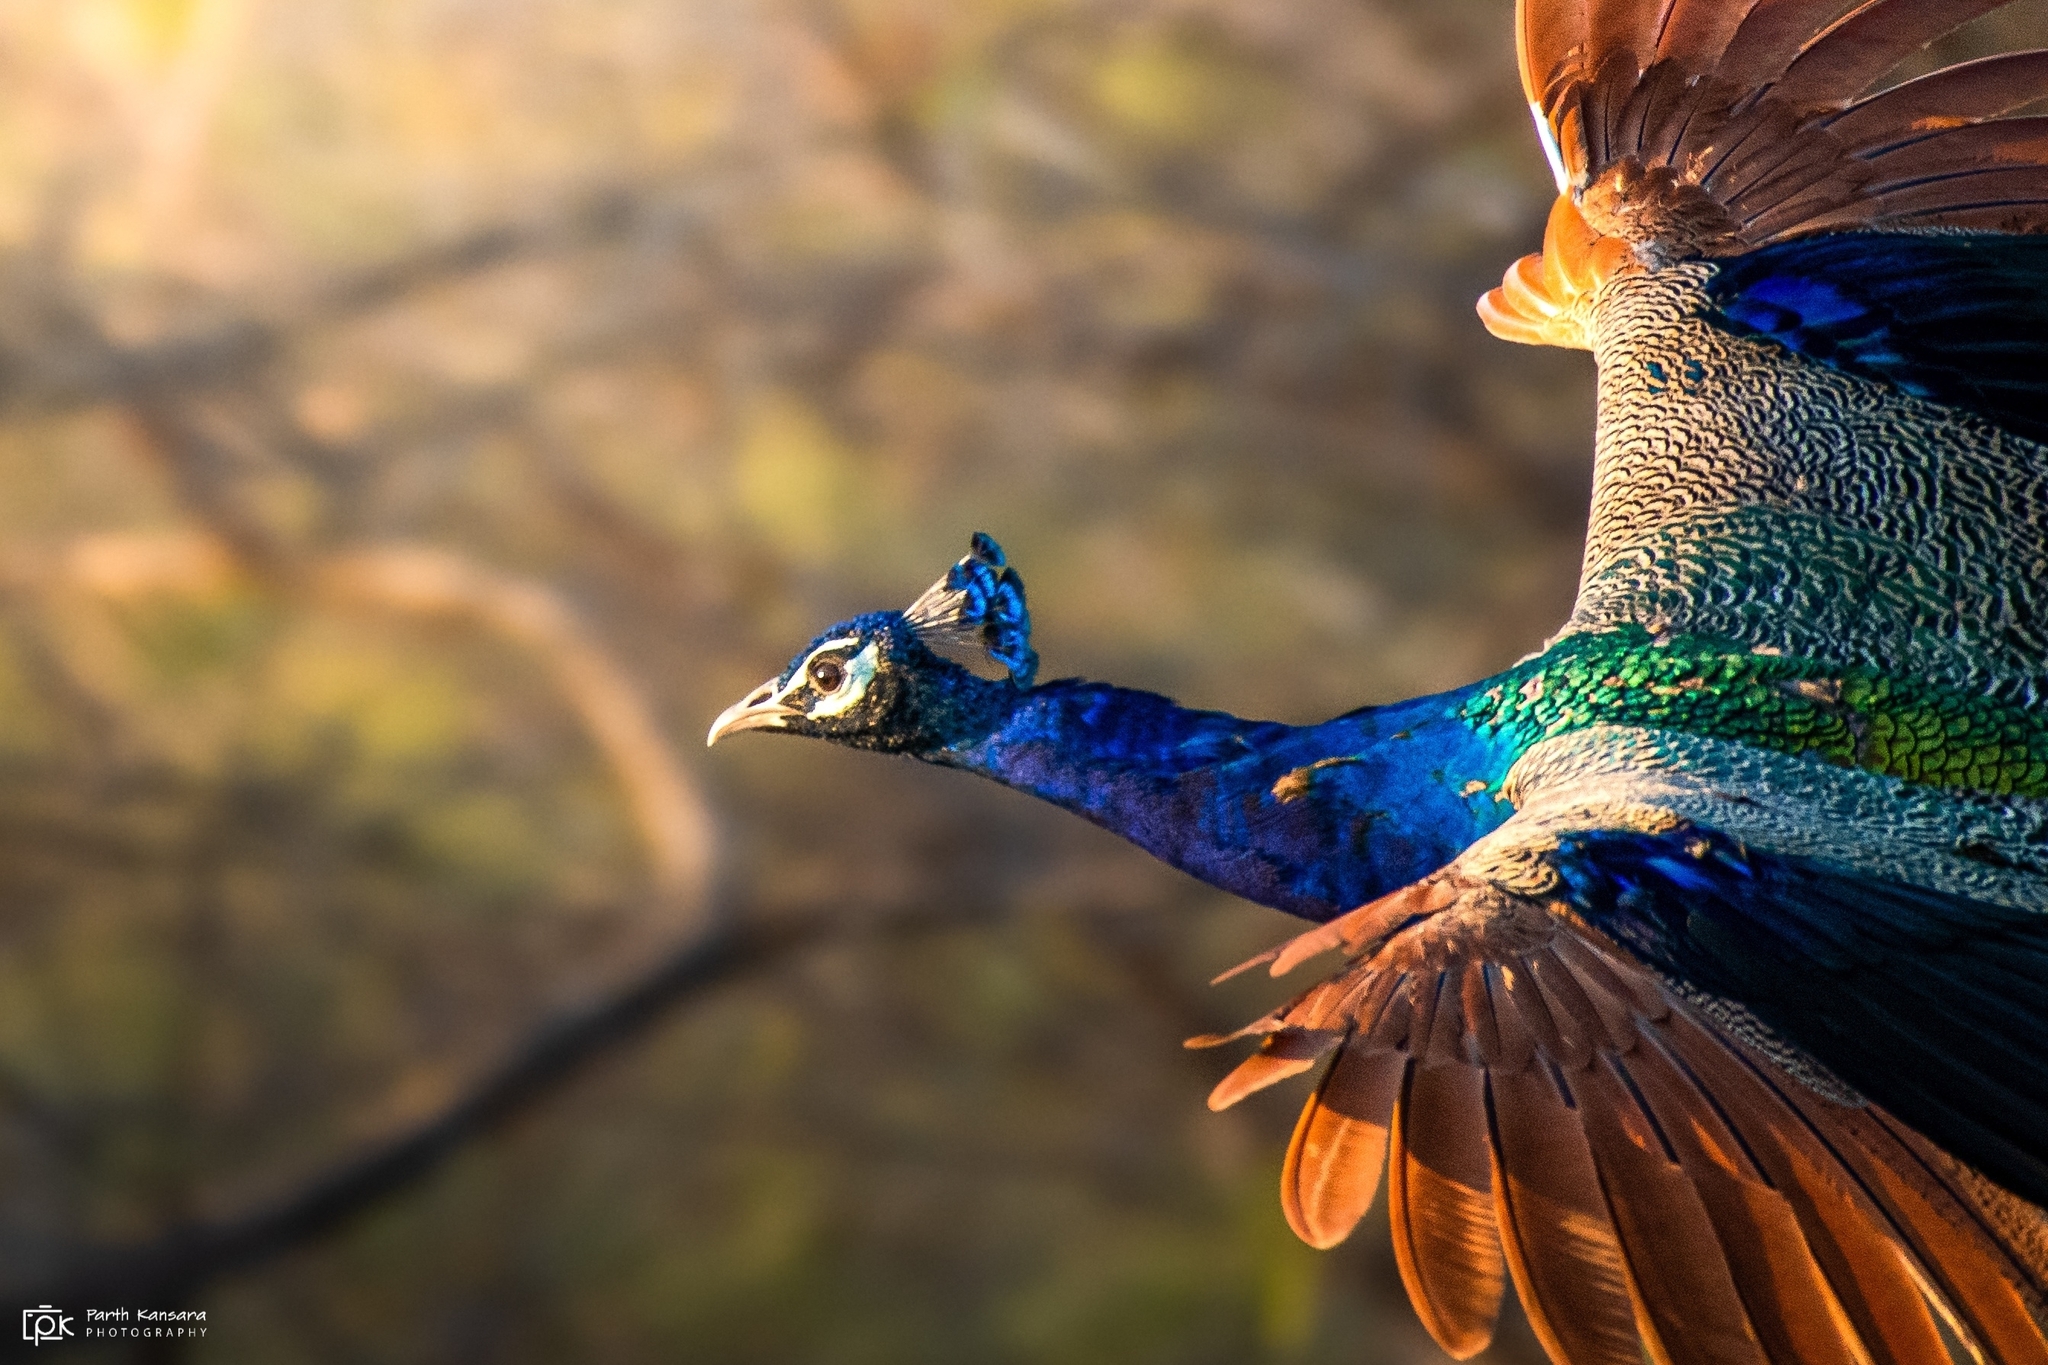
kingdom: Animalia
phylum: Chordata
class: Aves
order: Galliformes
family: Phasianidae
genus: Pavo
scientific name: Pavo cristatus
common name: Indian peafowl
